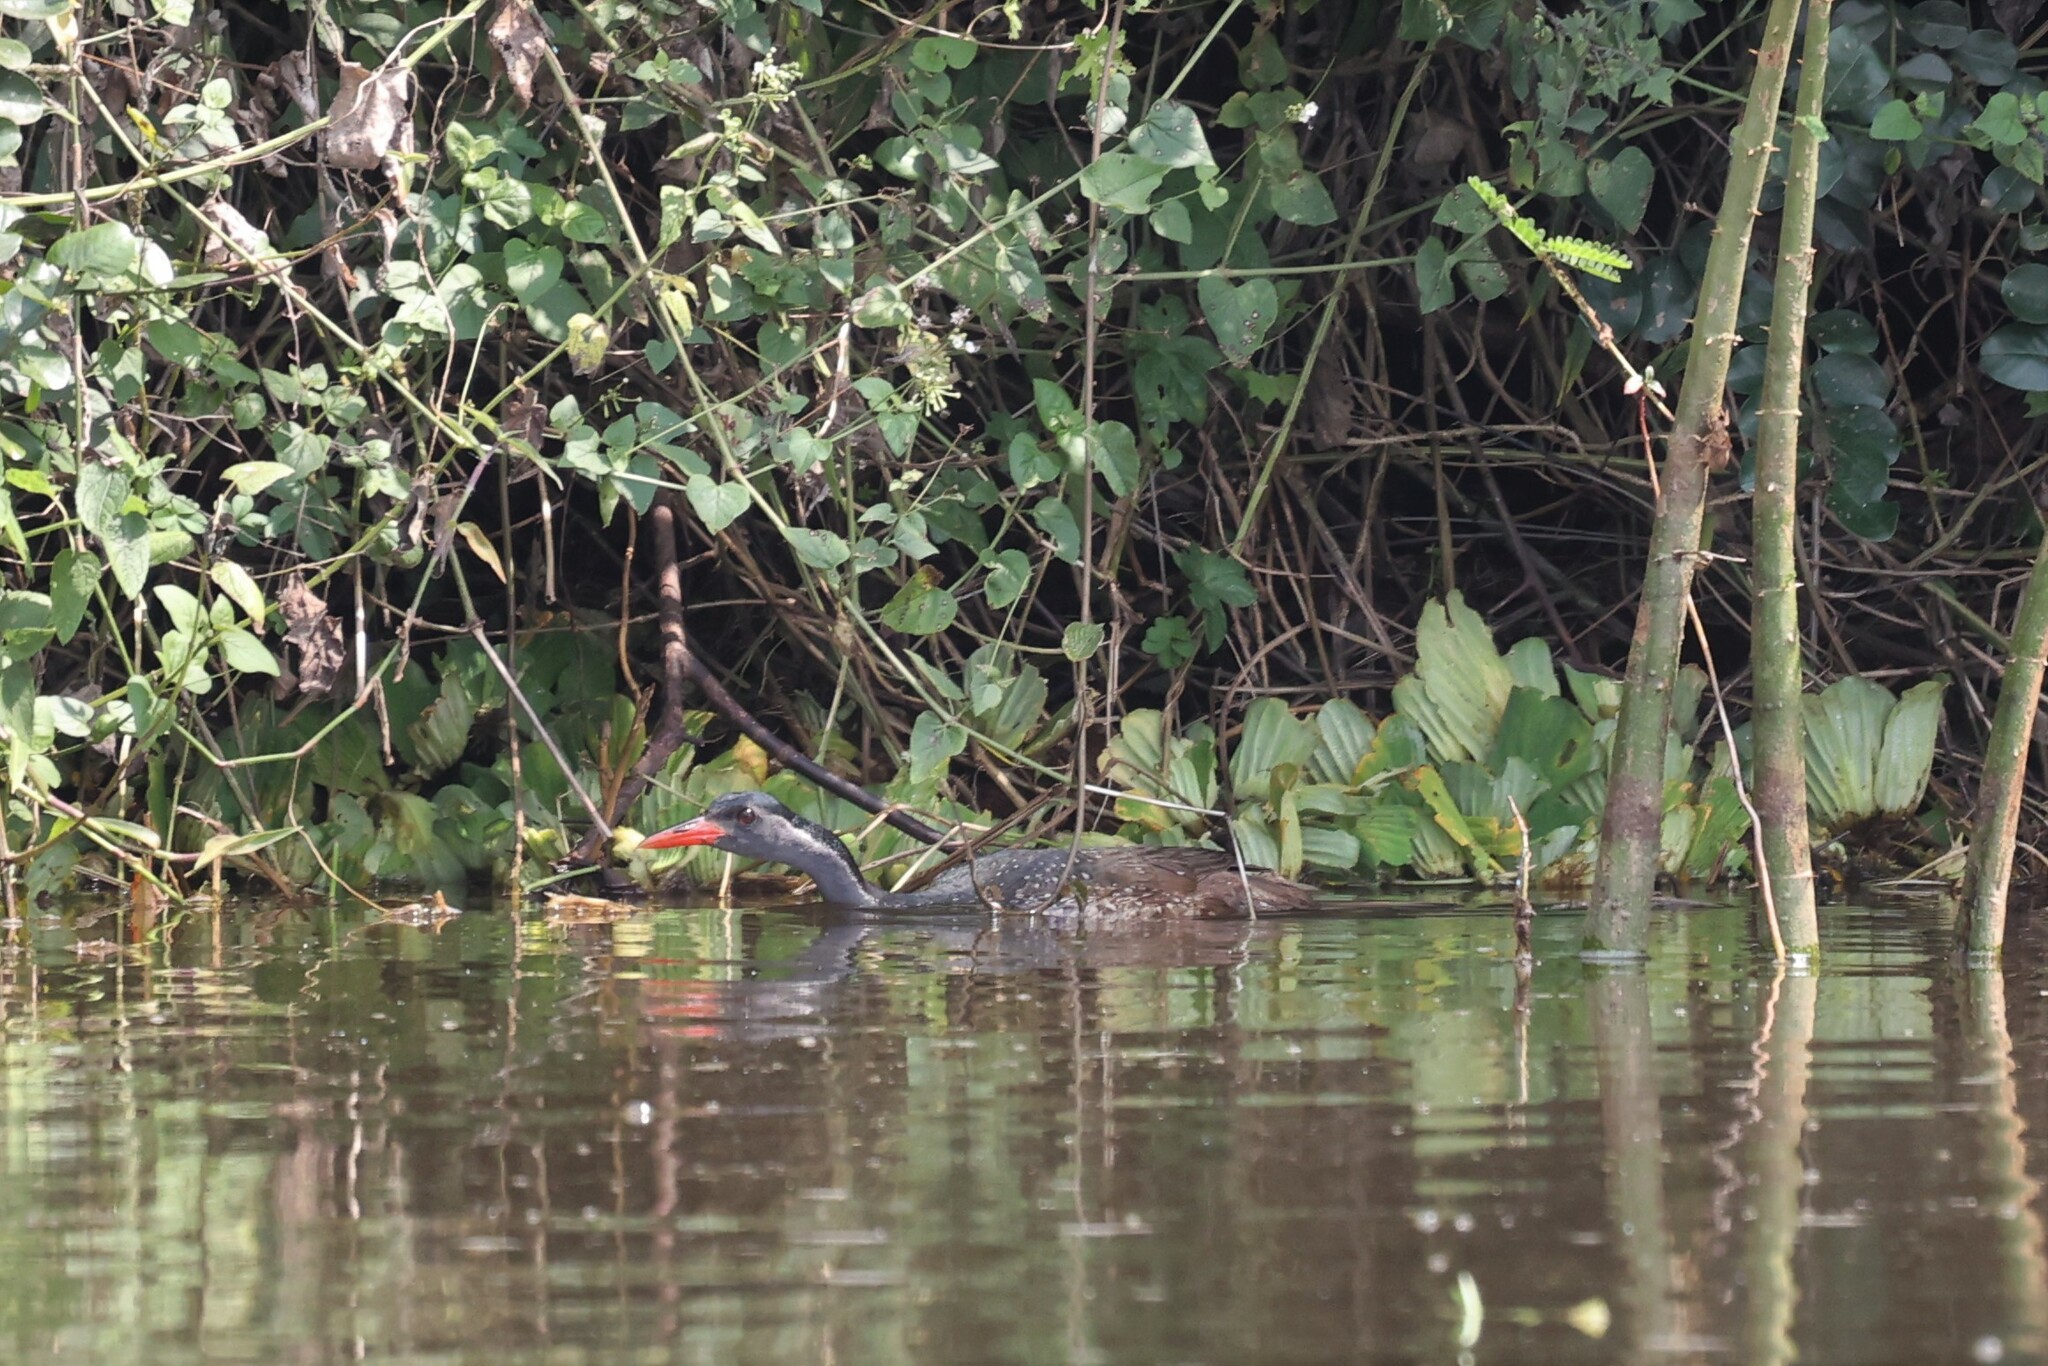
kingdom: Animalia
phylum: Chordata
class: Aves
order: Gruiformes
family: Heliornithidae
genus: Podica
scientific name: Podica senegalensis
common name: African finfoot
